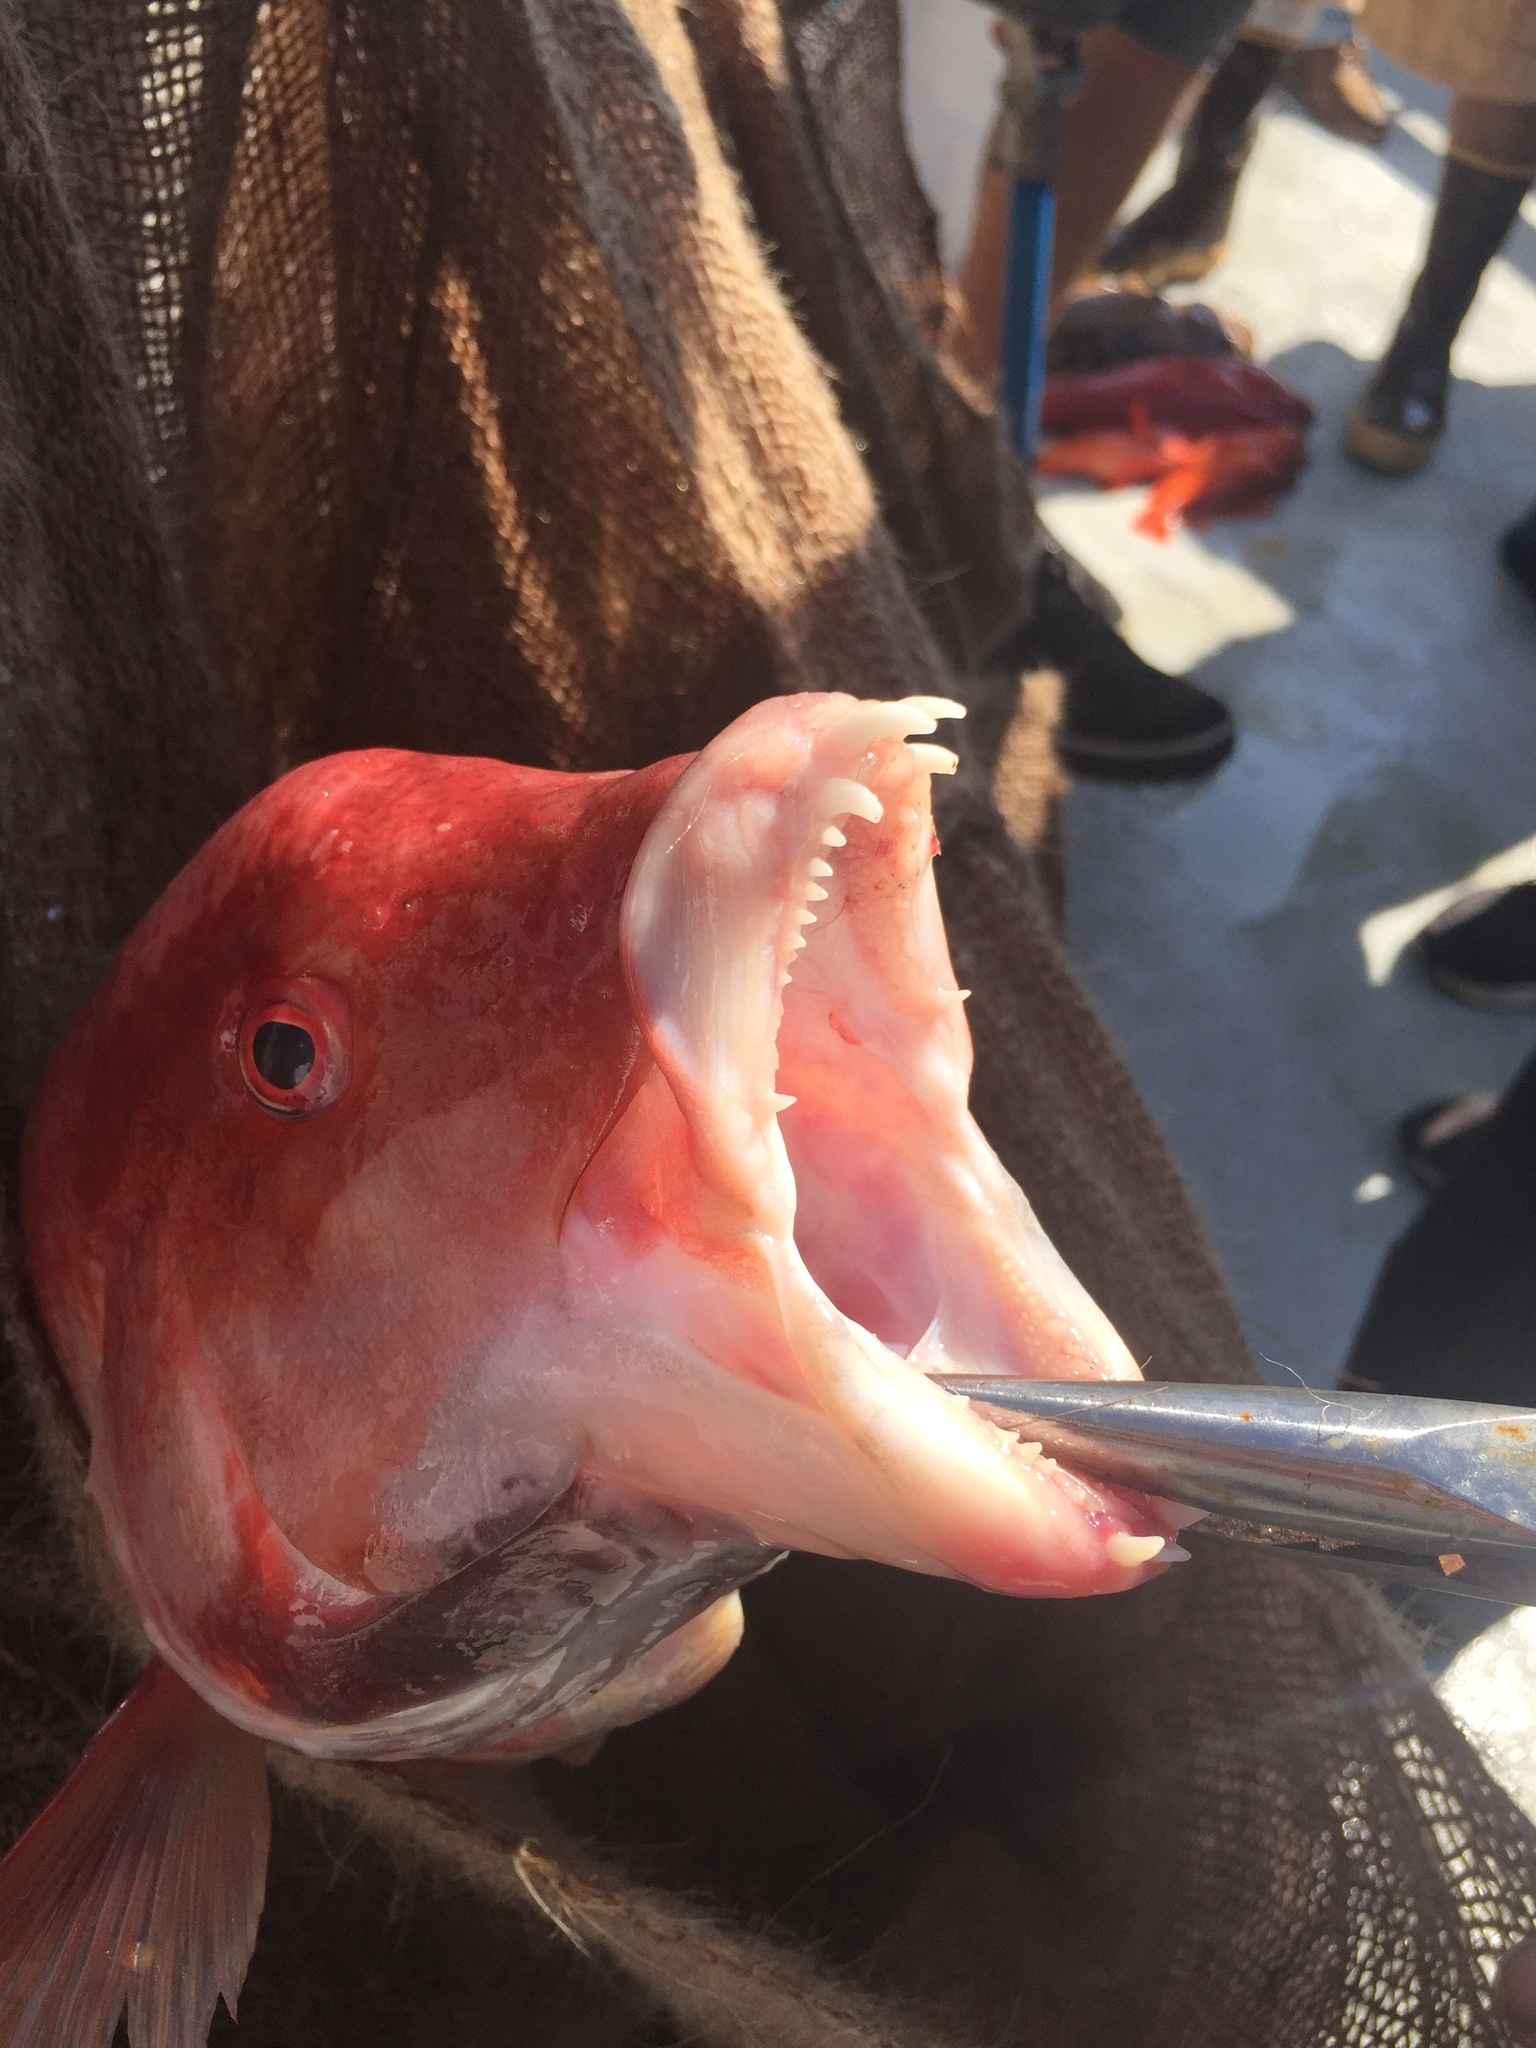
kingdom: Animalia
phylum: Chordata
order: Perciformes
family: Labridae
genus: Semicossyphus
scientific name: Semicossyphus pulcher
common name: California sheephead
